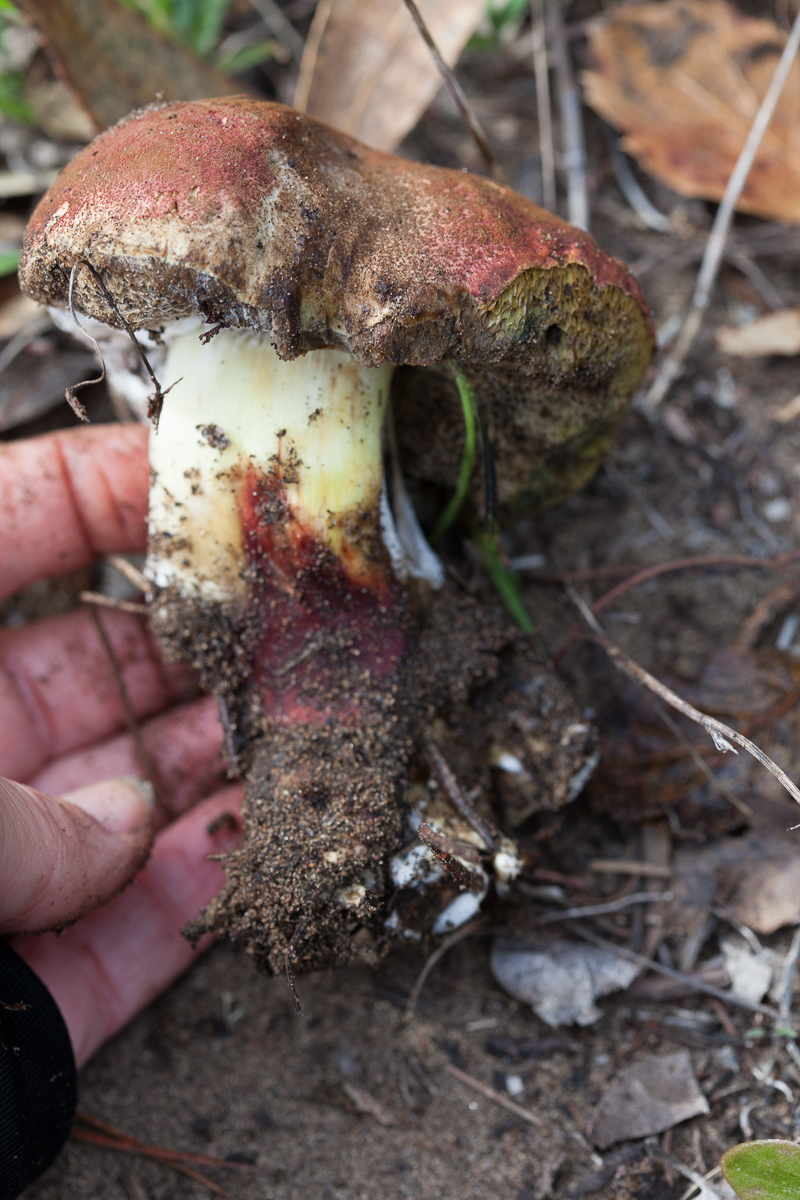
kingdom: Fungi
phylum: Basidiomycota
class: Agaricomycetes
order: Boletales
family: Boletaceae
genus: Xerocomellus
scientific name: Xerocomellus dryophilus
